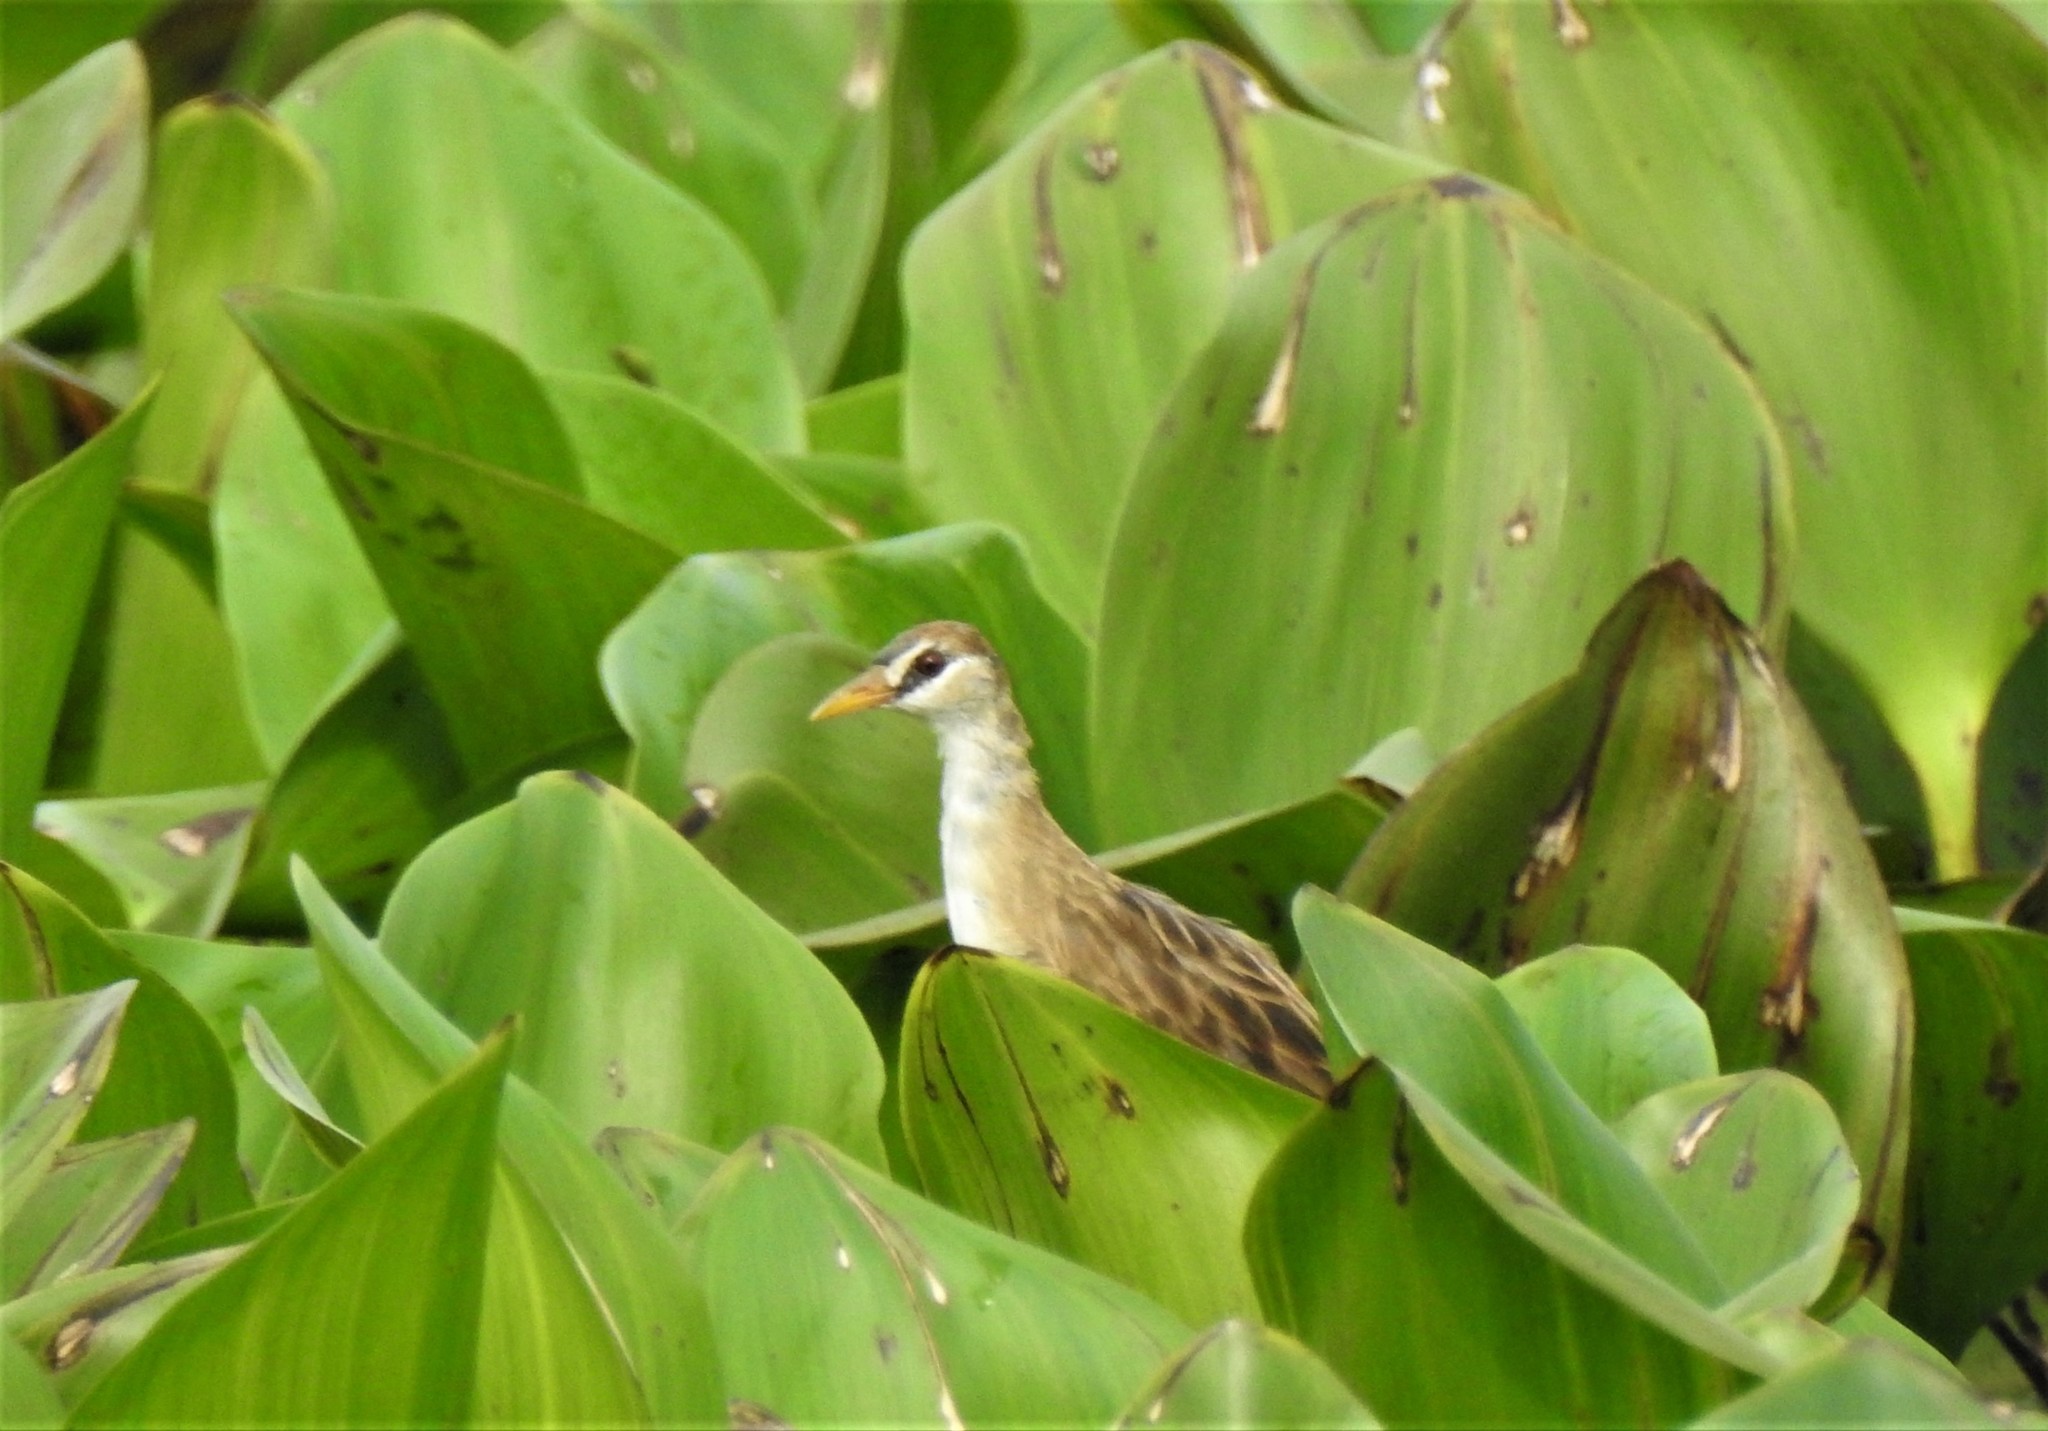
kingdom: Animalia
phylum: Chordata
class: Aves
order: Gruiformes
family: Rallidae
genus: Porzana
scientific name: Porzana cinerea
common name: White-browed crake
